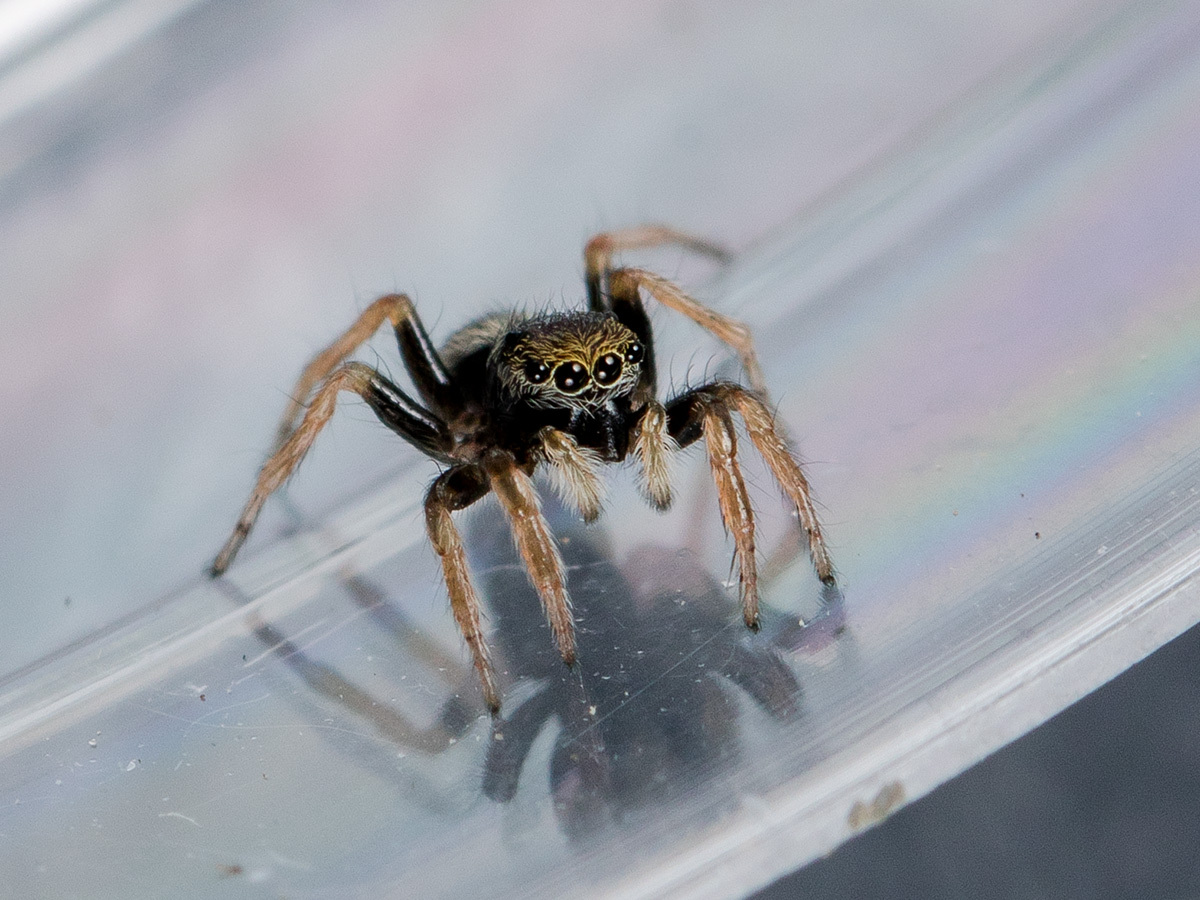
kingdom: Animalia
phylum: Arthropoda
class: Arachnida
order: Araneae
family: Salticidae
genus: Chalcoscirtus
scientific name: Chalcoscirtus karakurt
